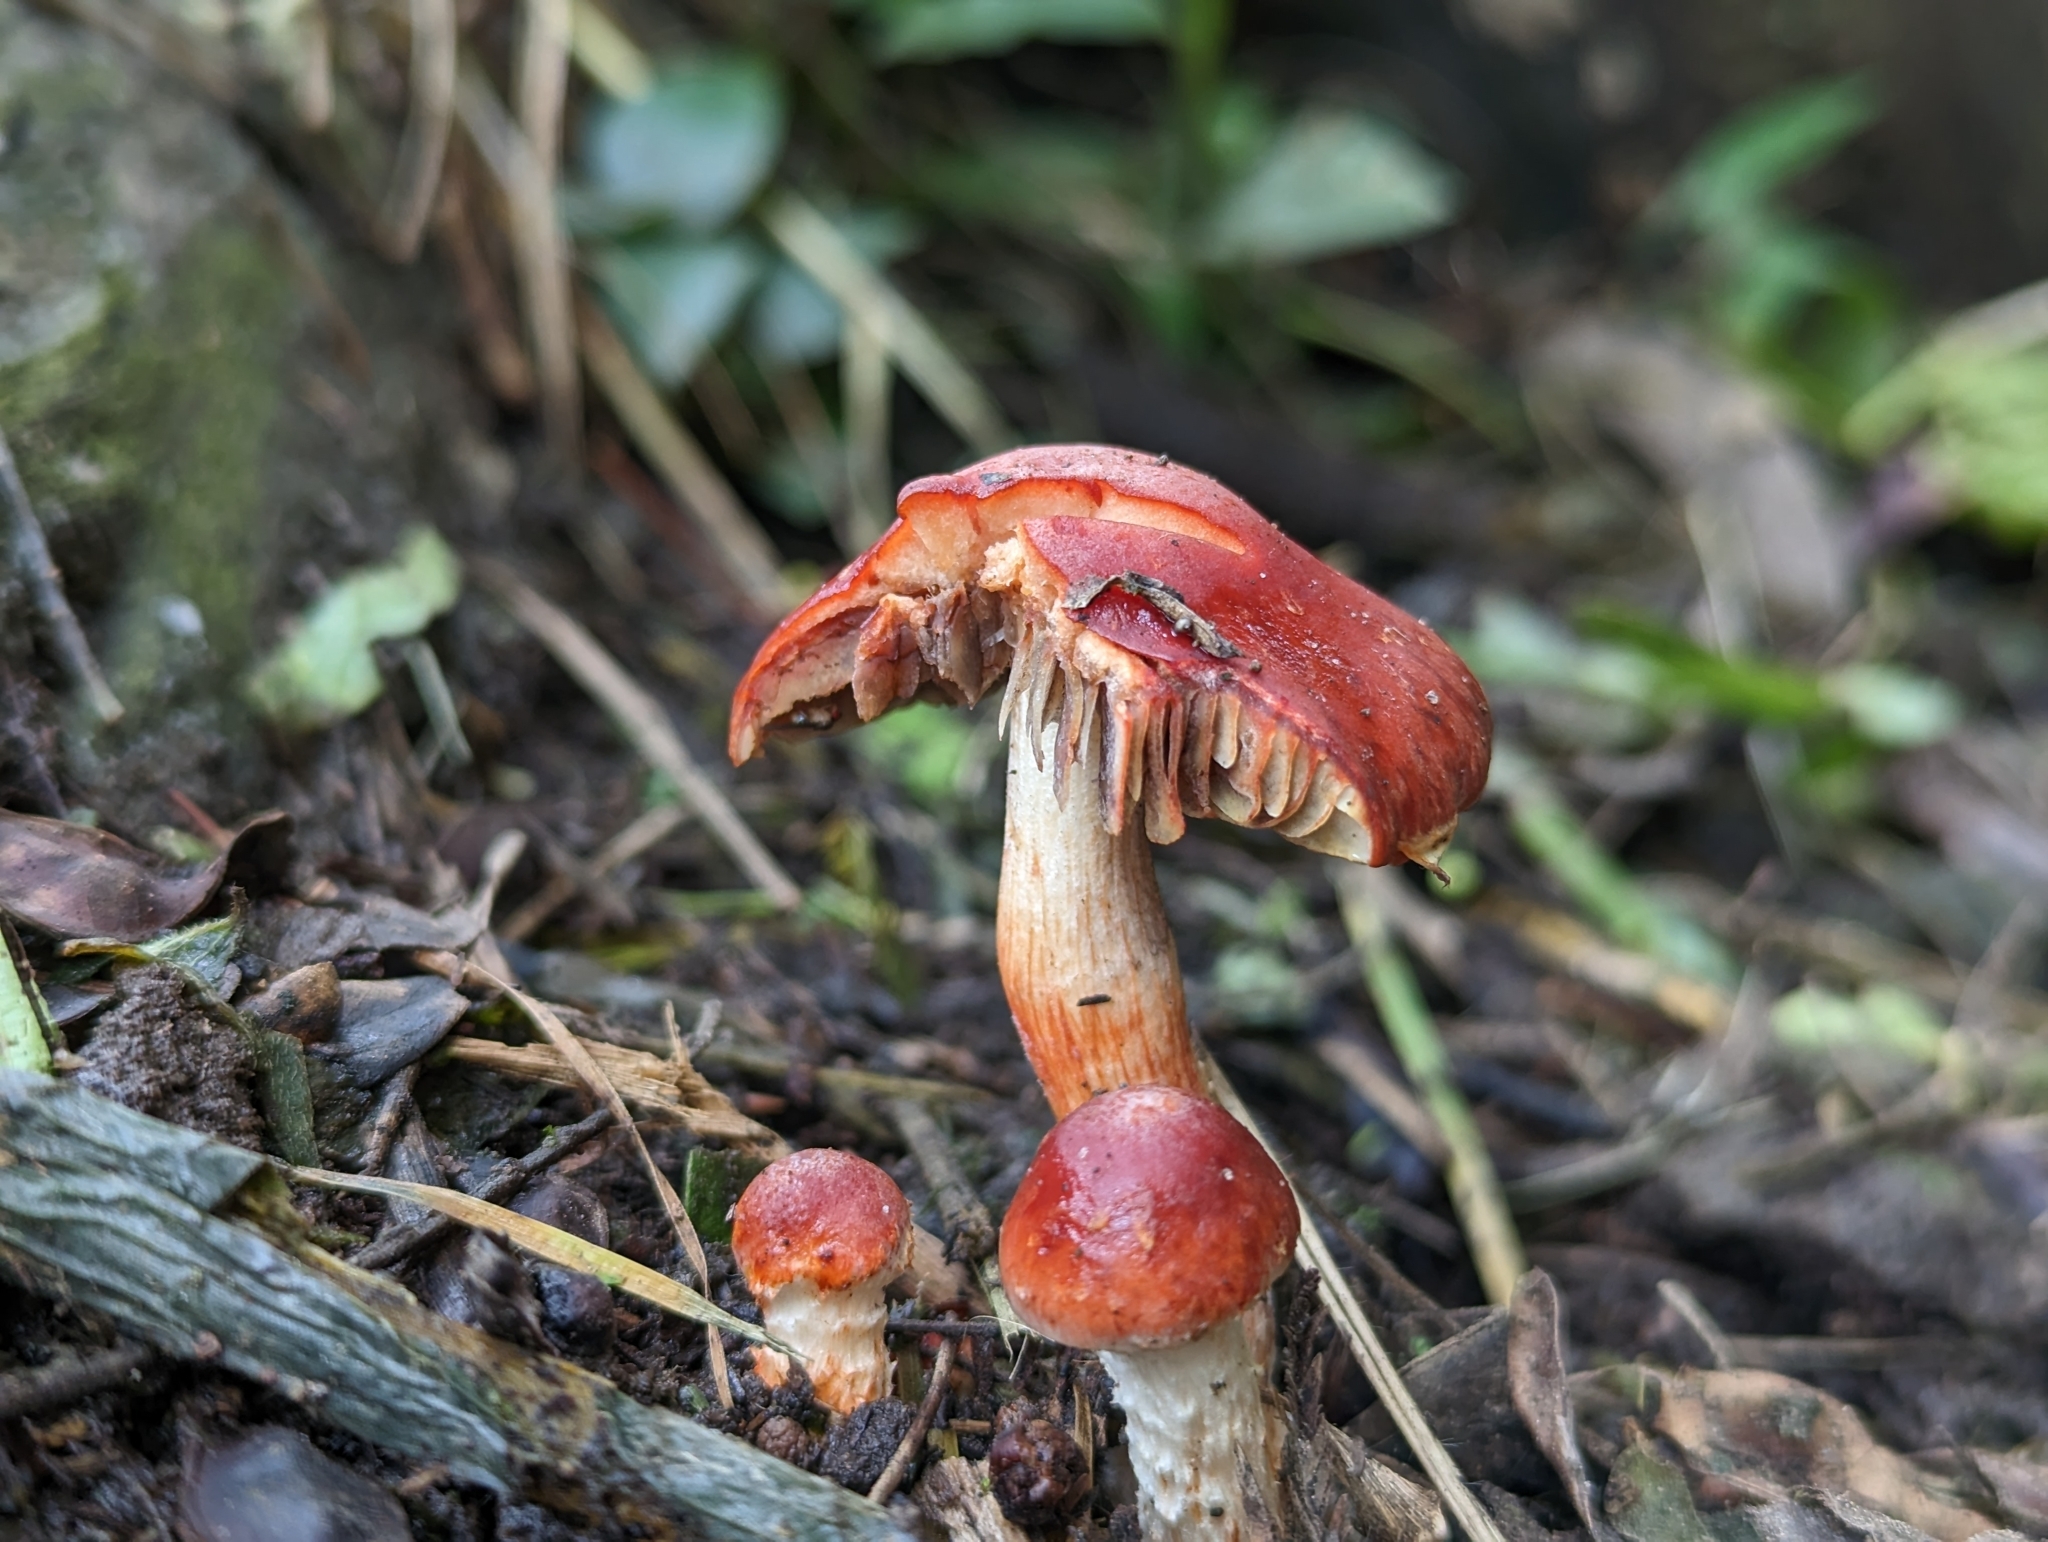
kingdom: Fungi
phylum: Basidiomycota
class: Agaricomycetes
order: Agaricales
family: Strophariaceae
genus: Leratiomyces
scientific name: Leratiomyces ceres
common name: Redlead roundhead
